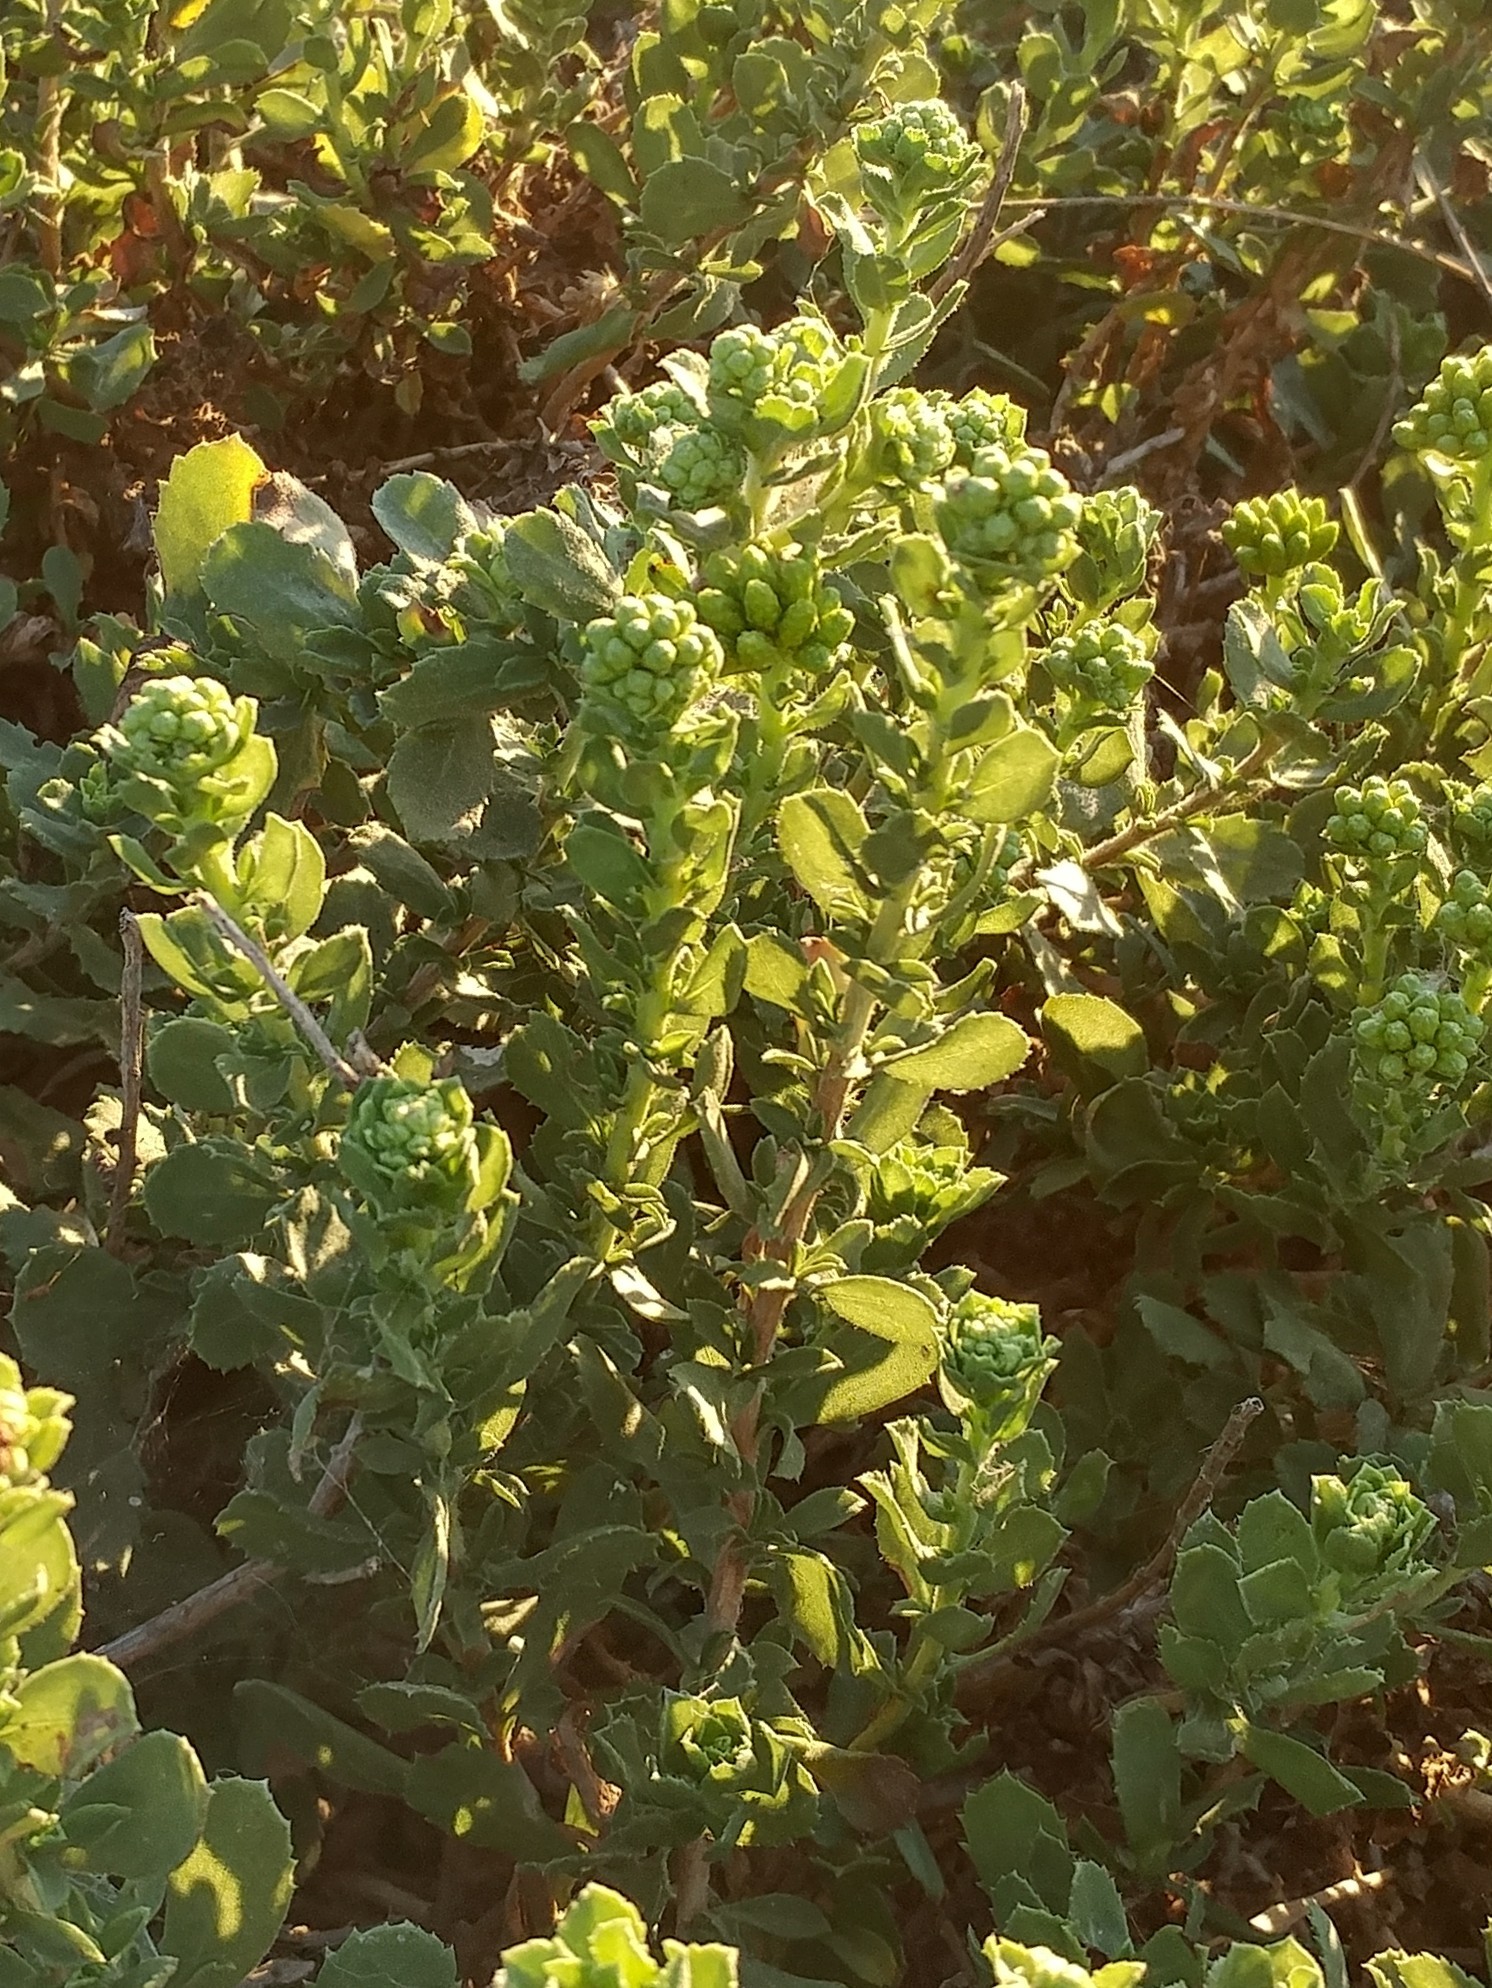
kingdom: Plantae
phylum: Tracheophyta
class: Magnoliopsida
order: Asterales
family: Asteraceae
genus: Isocoma
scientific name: Isocoma menziesii
